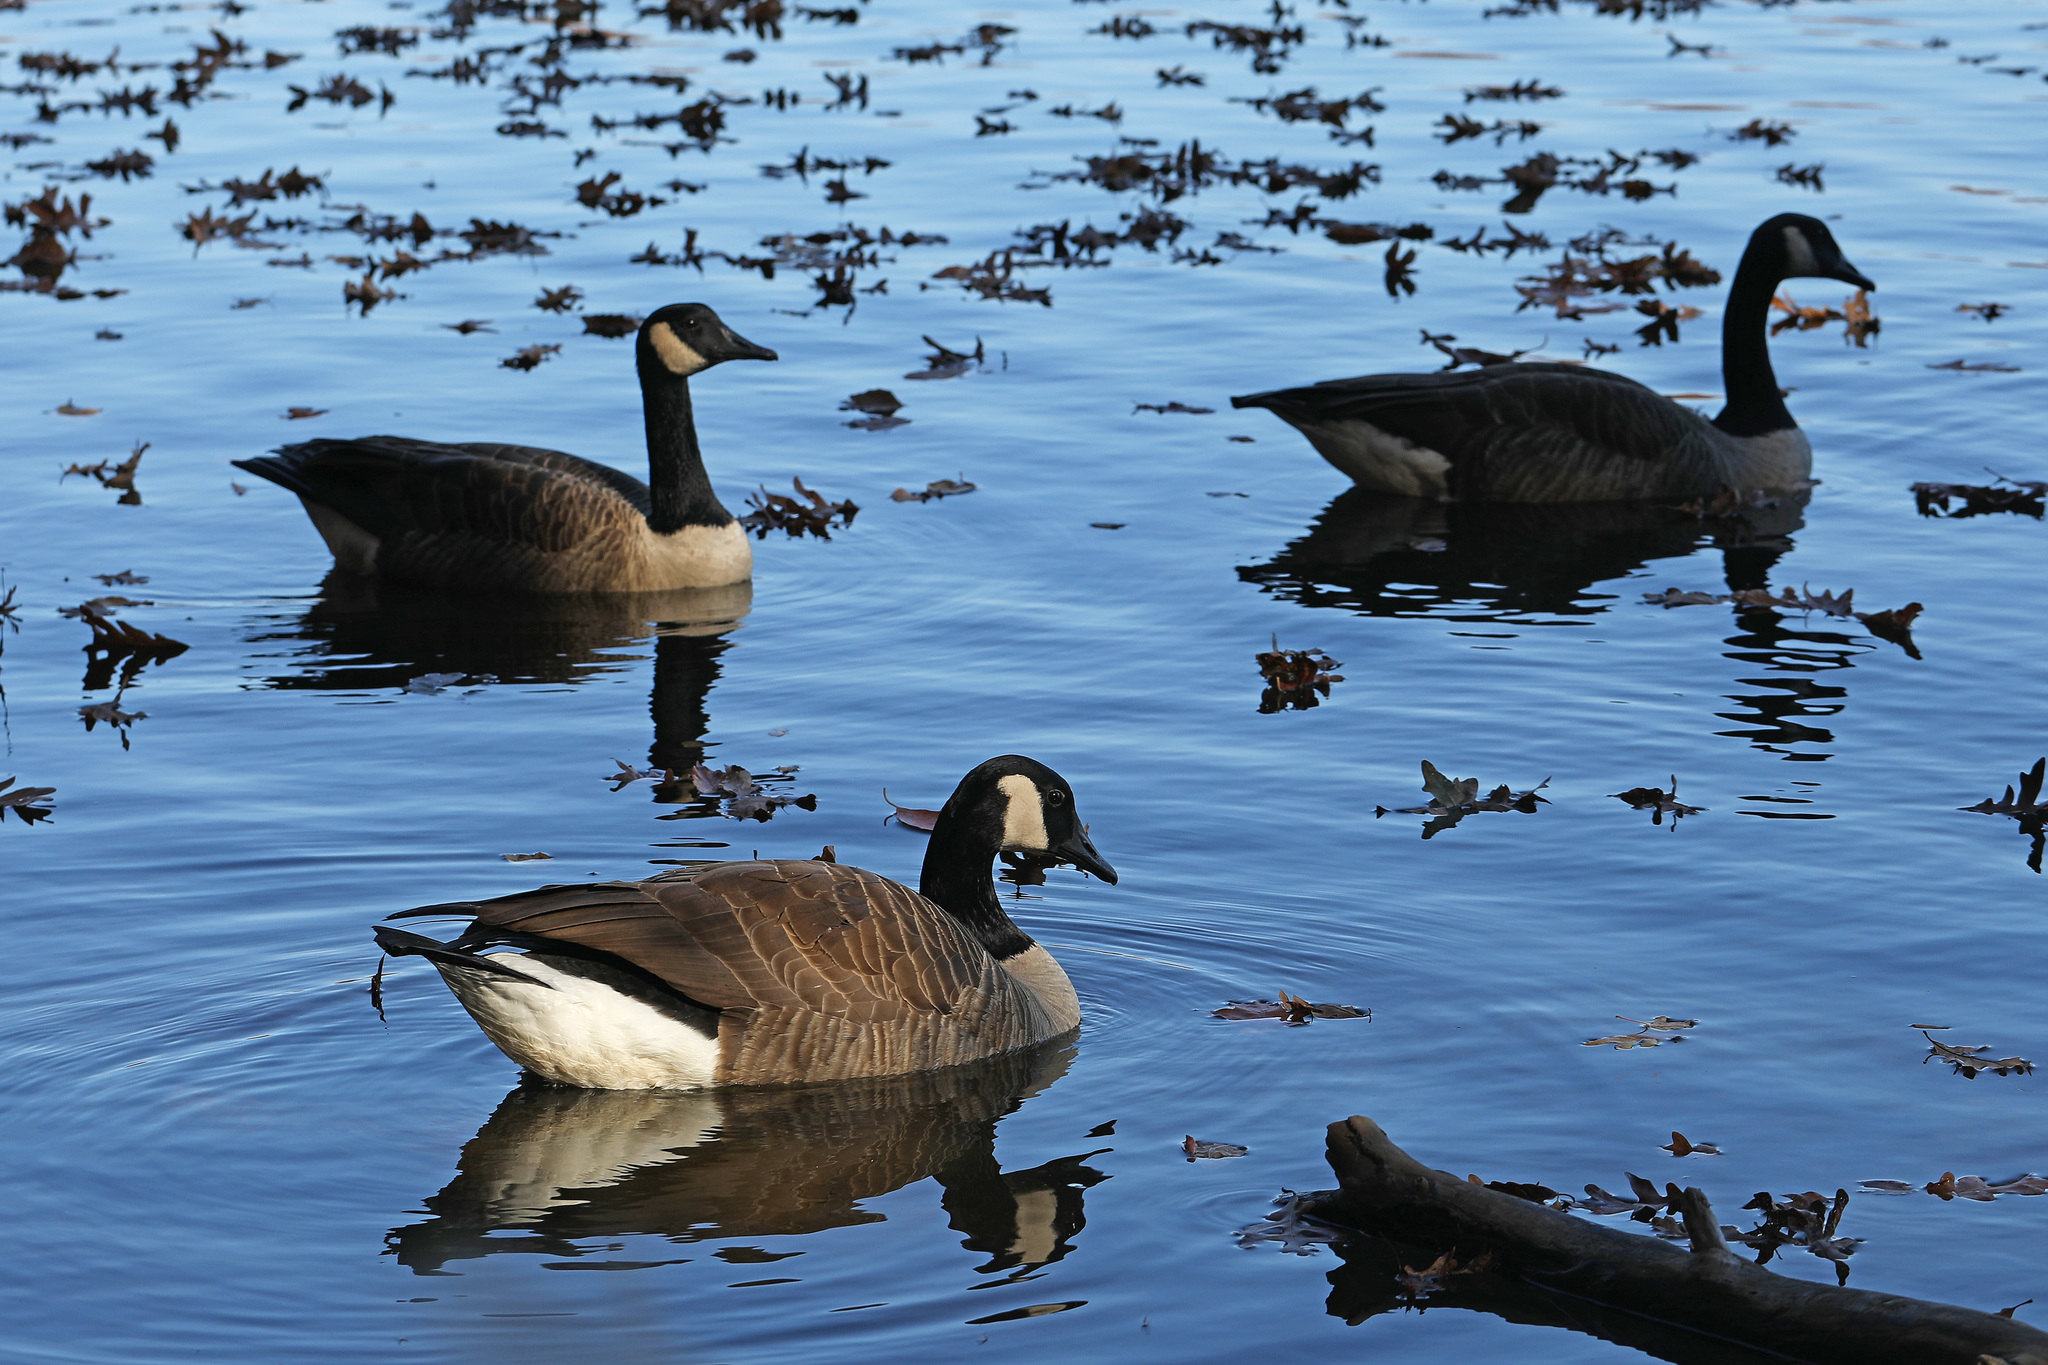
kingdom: Animalia
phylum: Chordata
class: Aves
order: Anseriformes
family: Anatidae
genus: Branta
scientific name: Branta canadensis
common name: Canada goose
